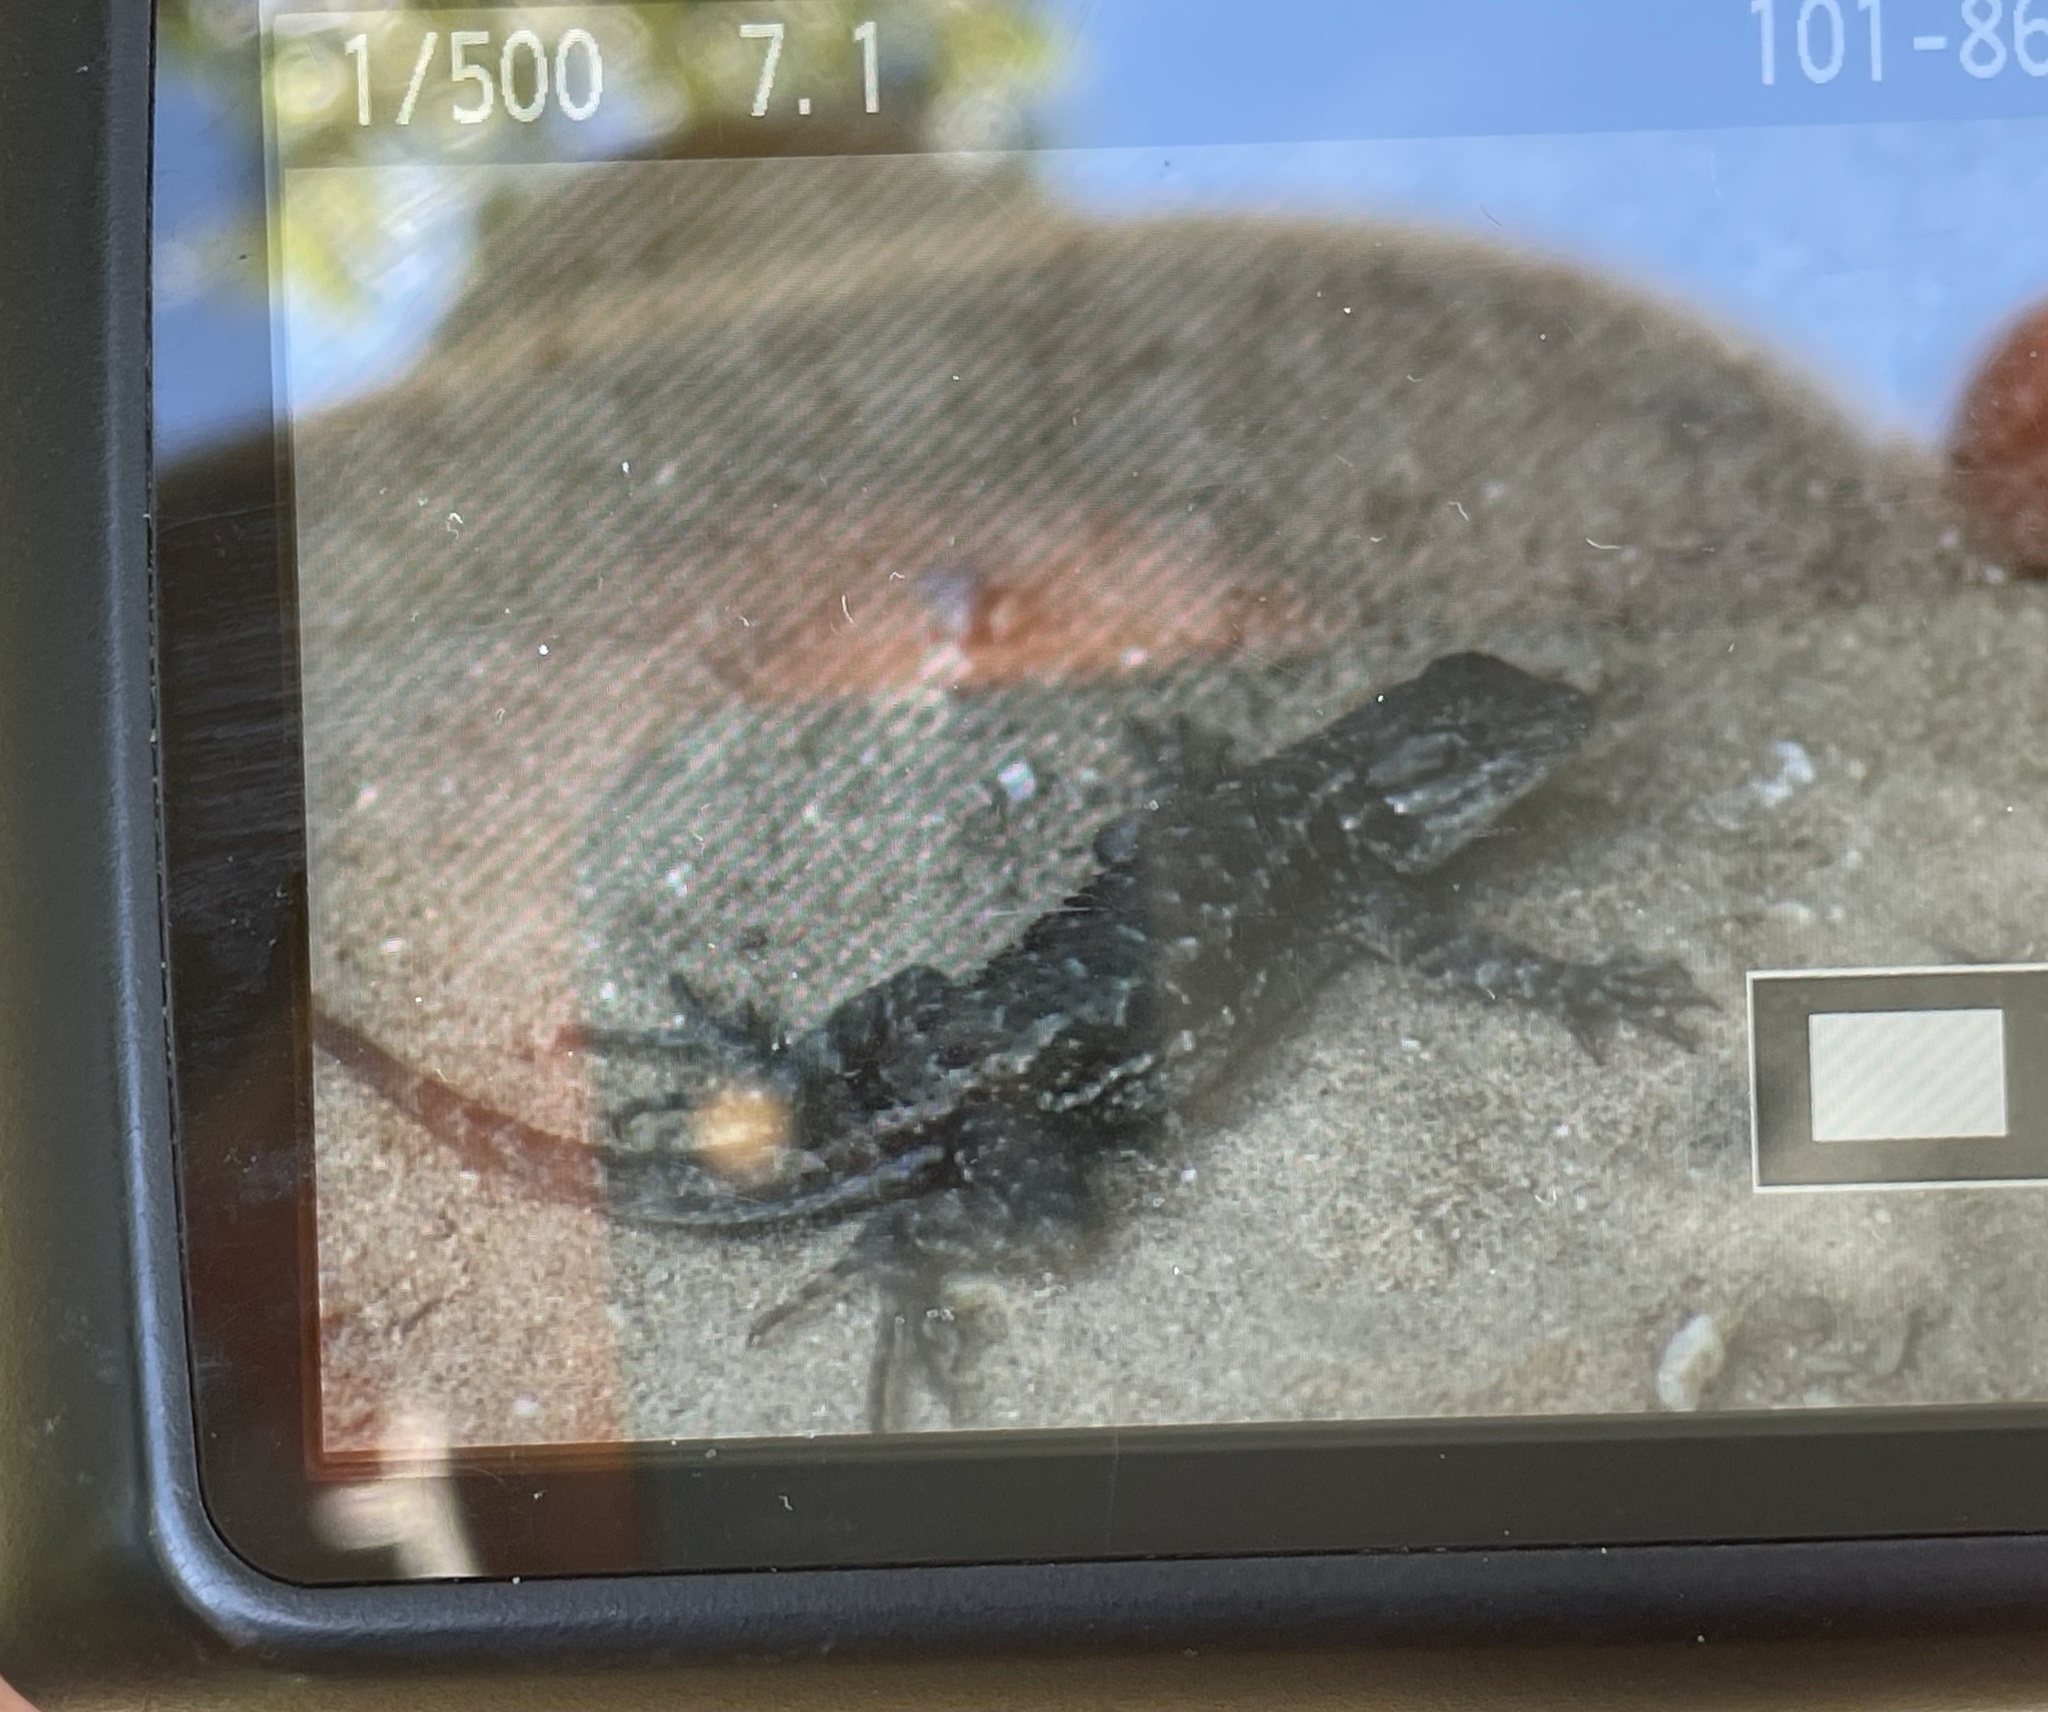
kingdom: Animalia
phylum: Chordata
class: Squamata
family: Phrynosomatidae
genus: Sceloporus
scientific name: Sceloporus occidentalis
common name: Western fence lizard
